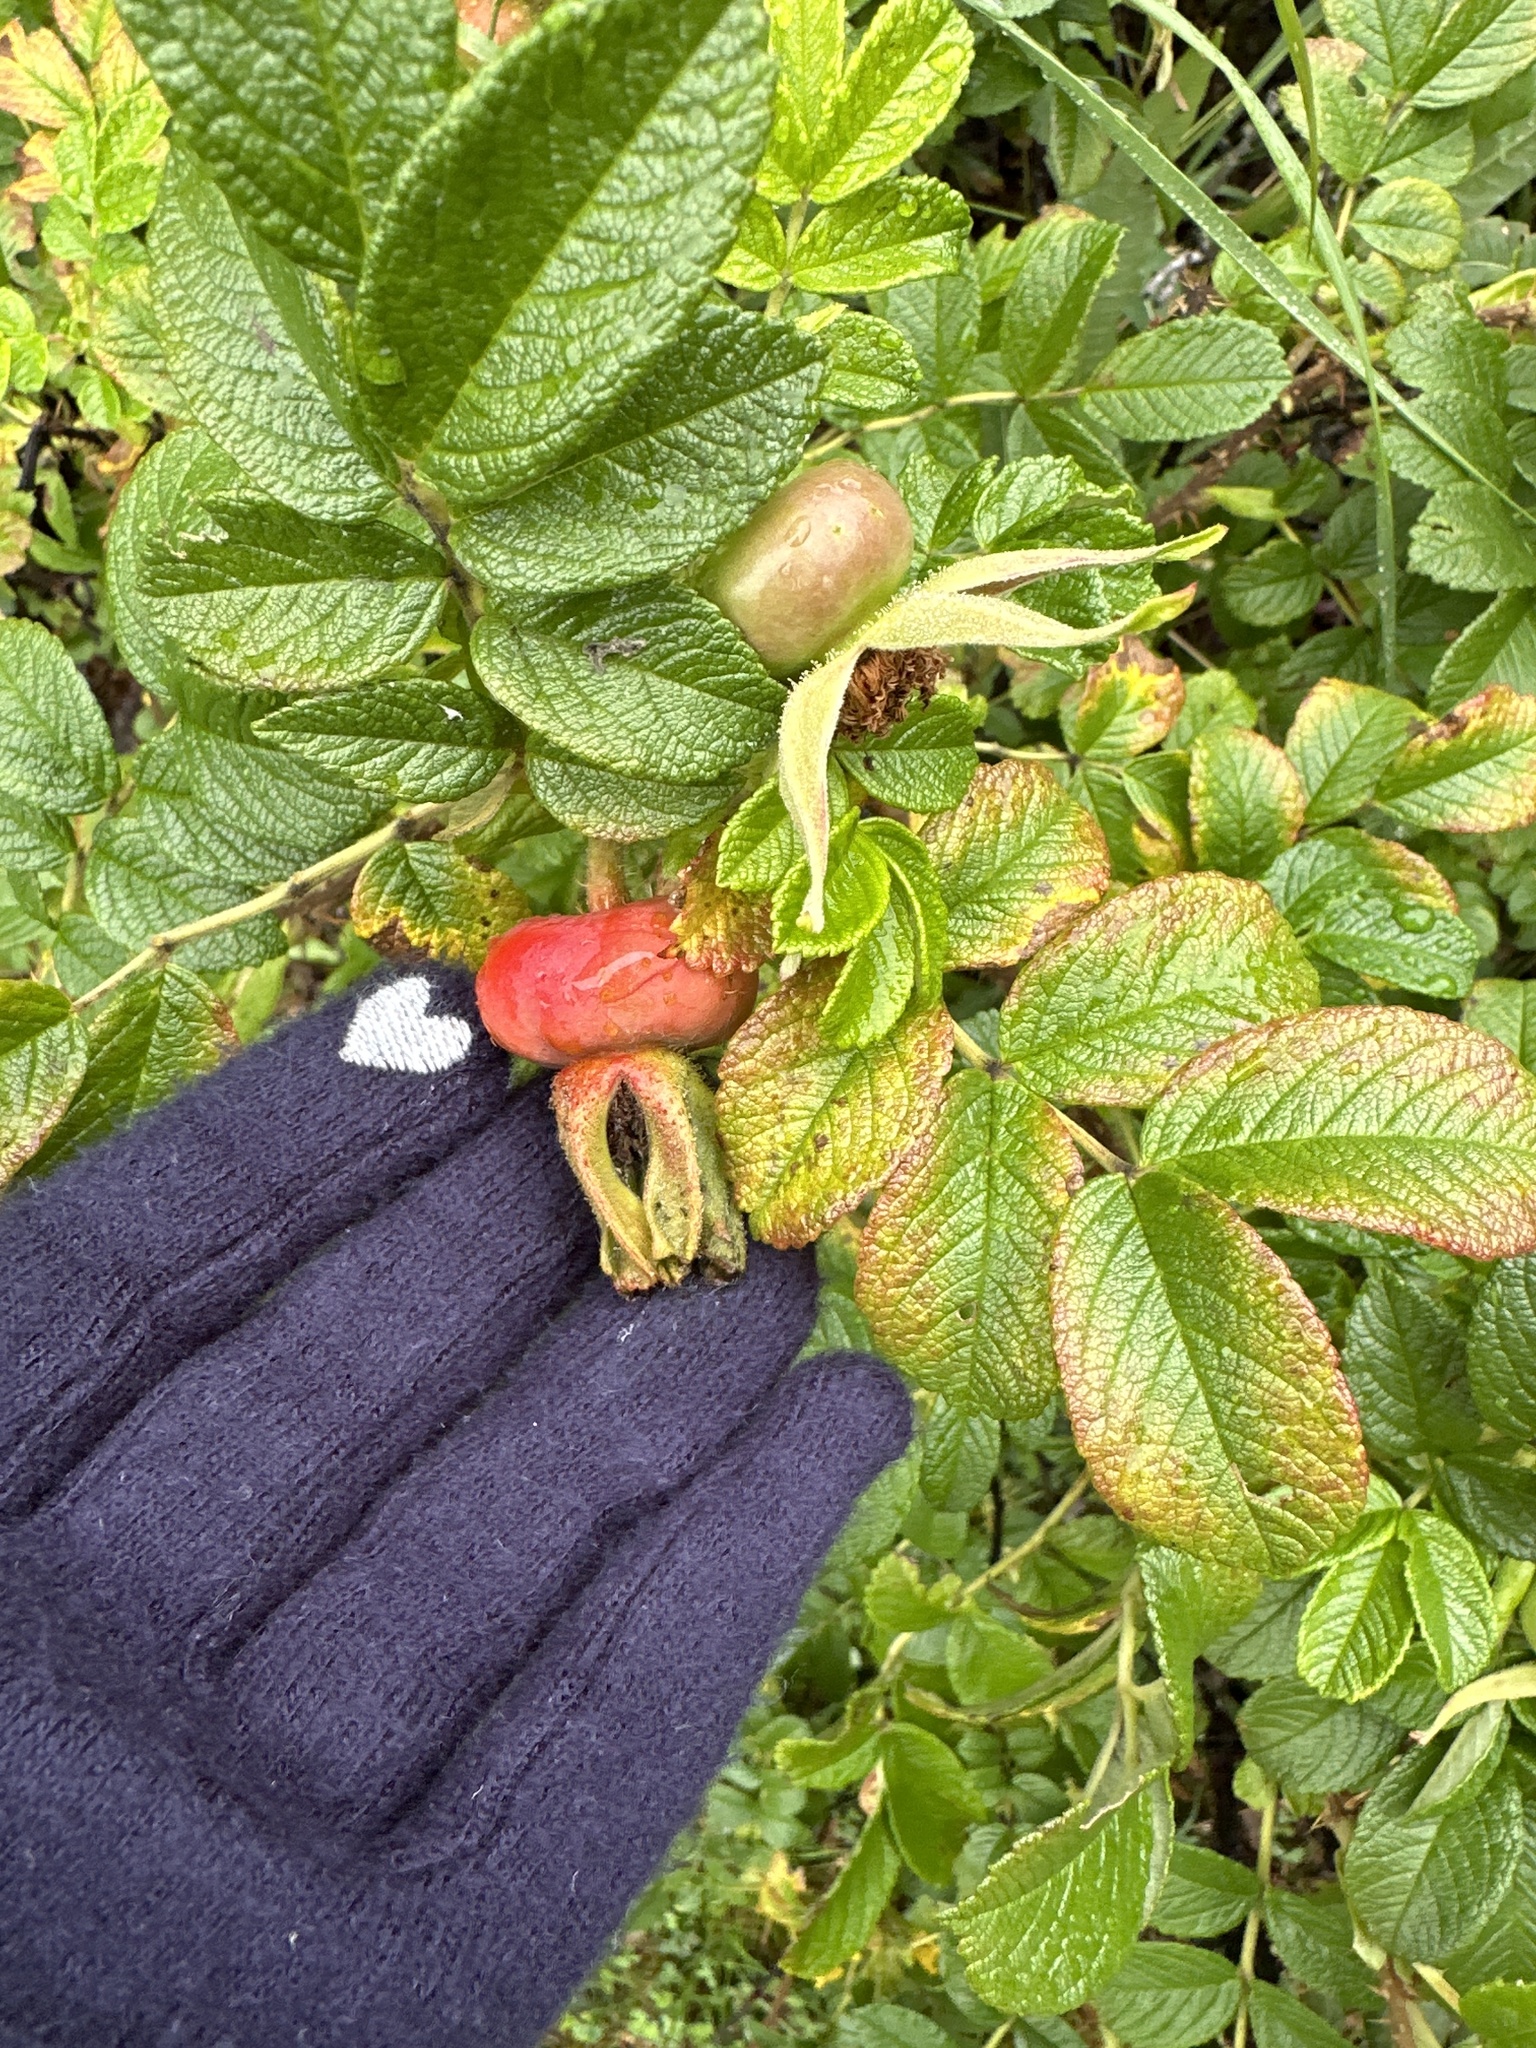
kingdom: Plantae
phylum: Tracheophyta
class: Magnoliopsida
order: Rosales
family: Rosaceae
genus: Rosa
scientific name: Rosa rugosa
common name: Japanese rose
